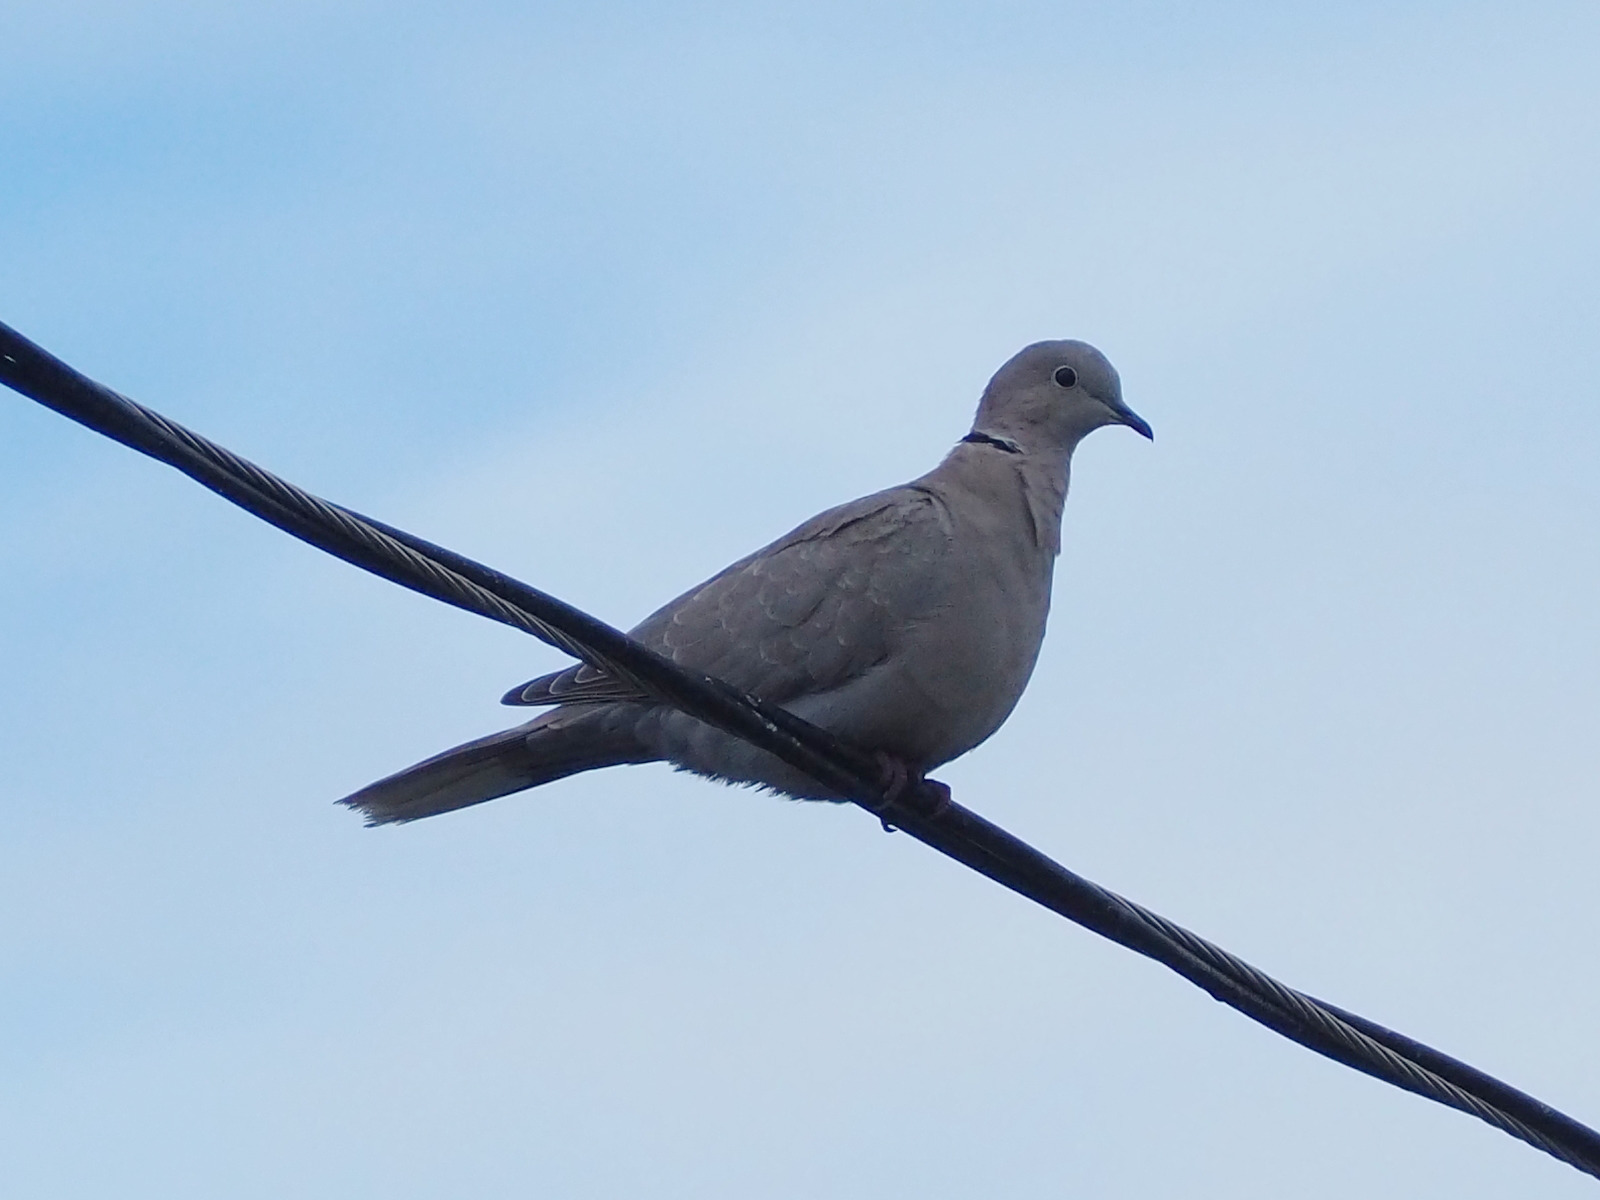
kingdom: Animalia
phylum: Chordata
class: Aves
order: Columbiformes
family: Columbidae
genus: Streptopelia
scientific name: Streptopelia decaocto
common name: Eurasian collared dove
